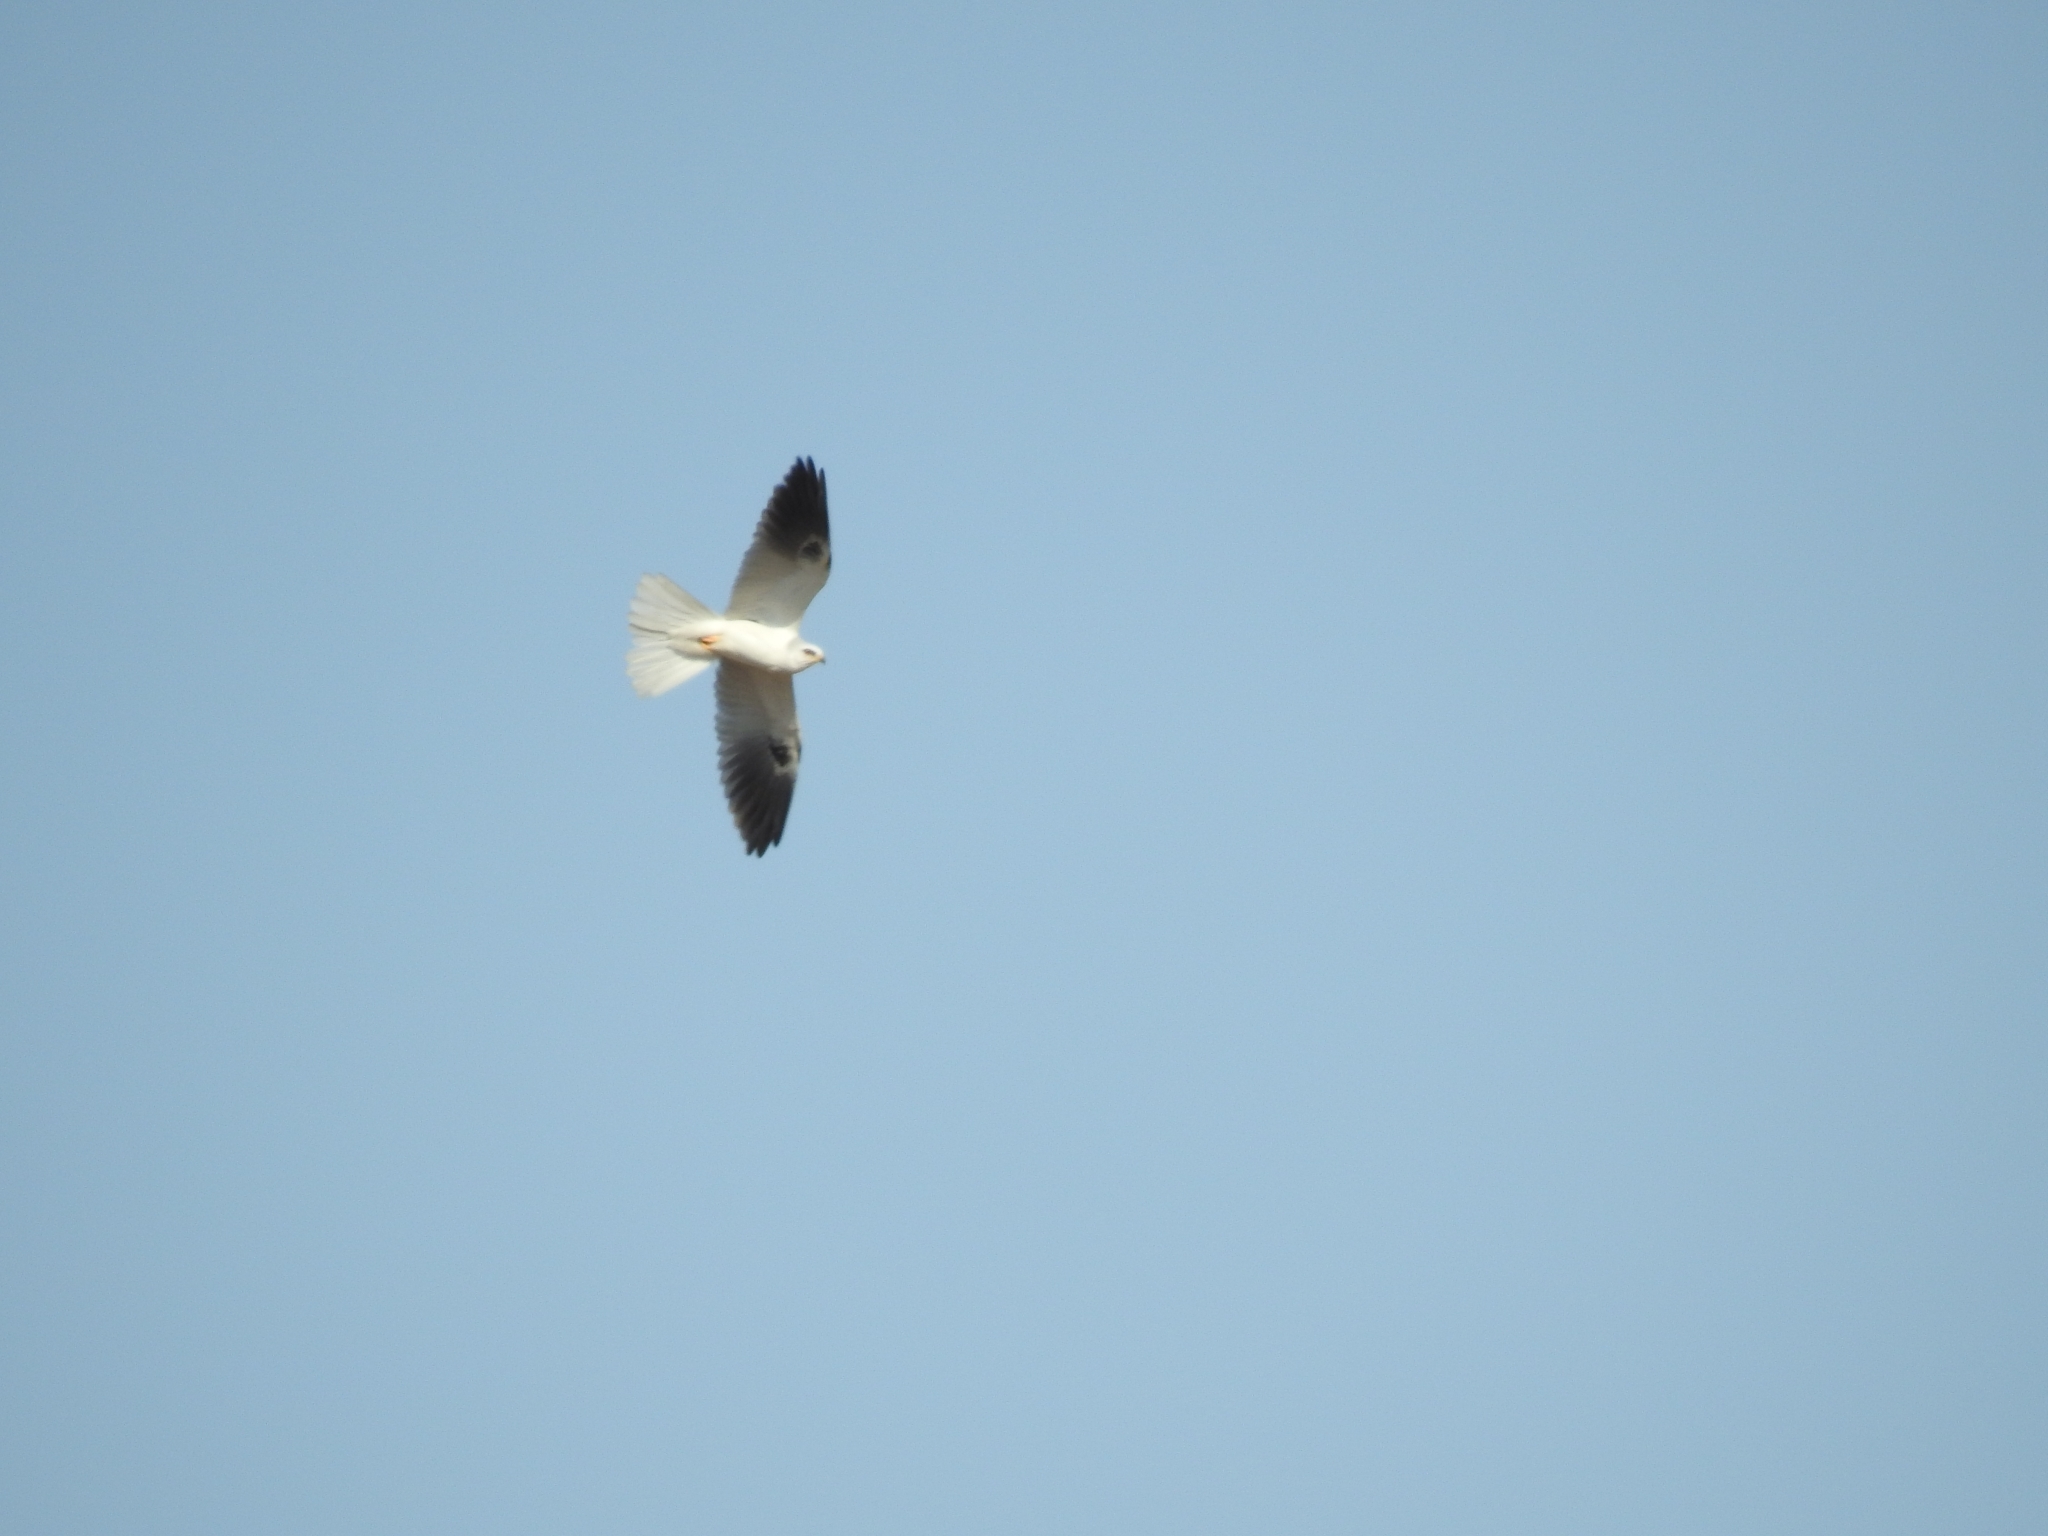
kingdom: Animalia
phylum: Chordata
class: Aves
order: Accipitriformes
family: Accipitridae
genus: Elanus
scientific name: Elanus leucurus
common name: White-tailed kite
